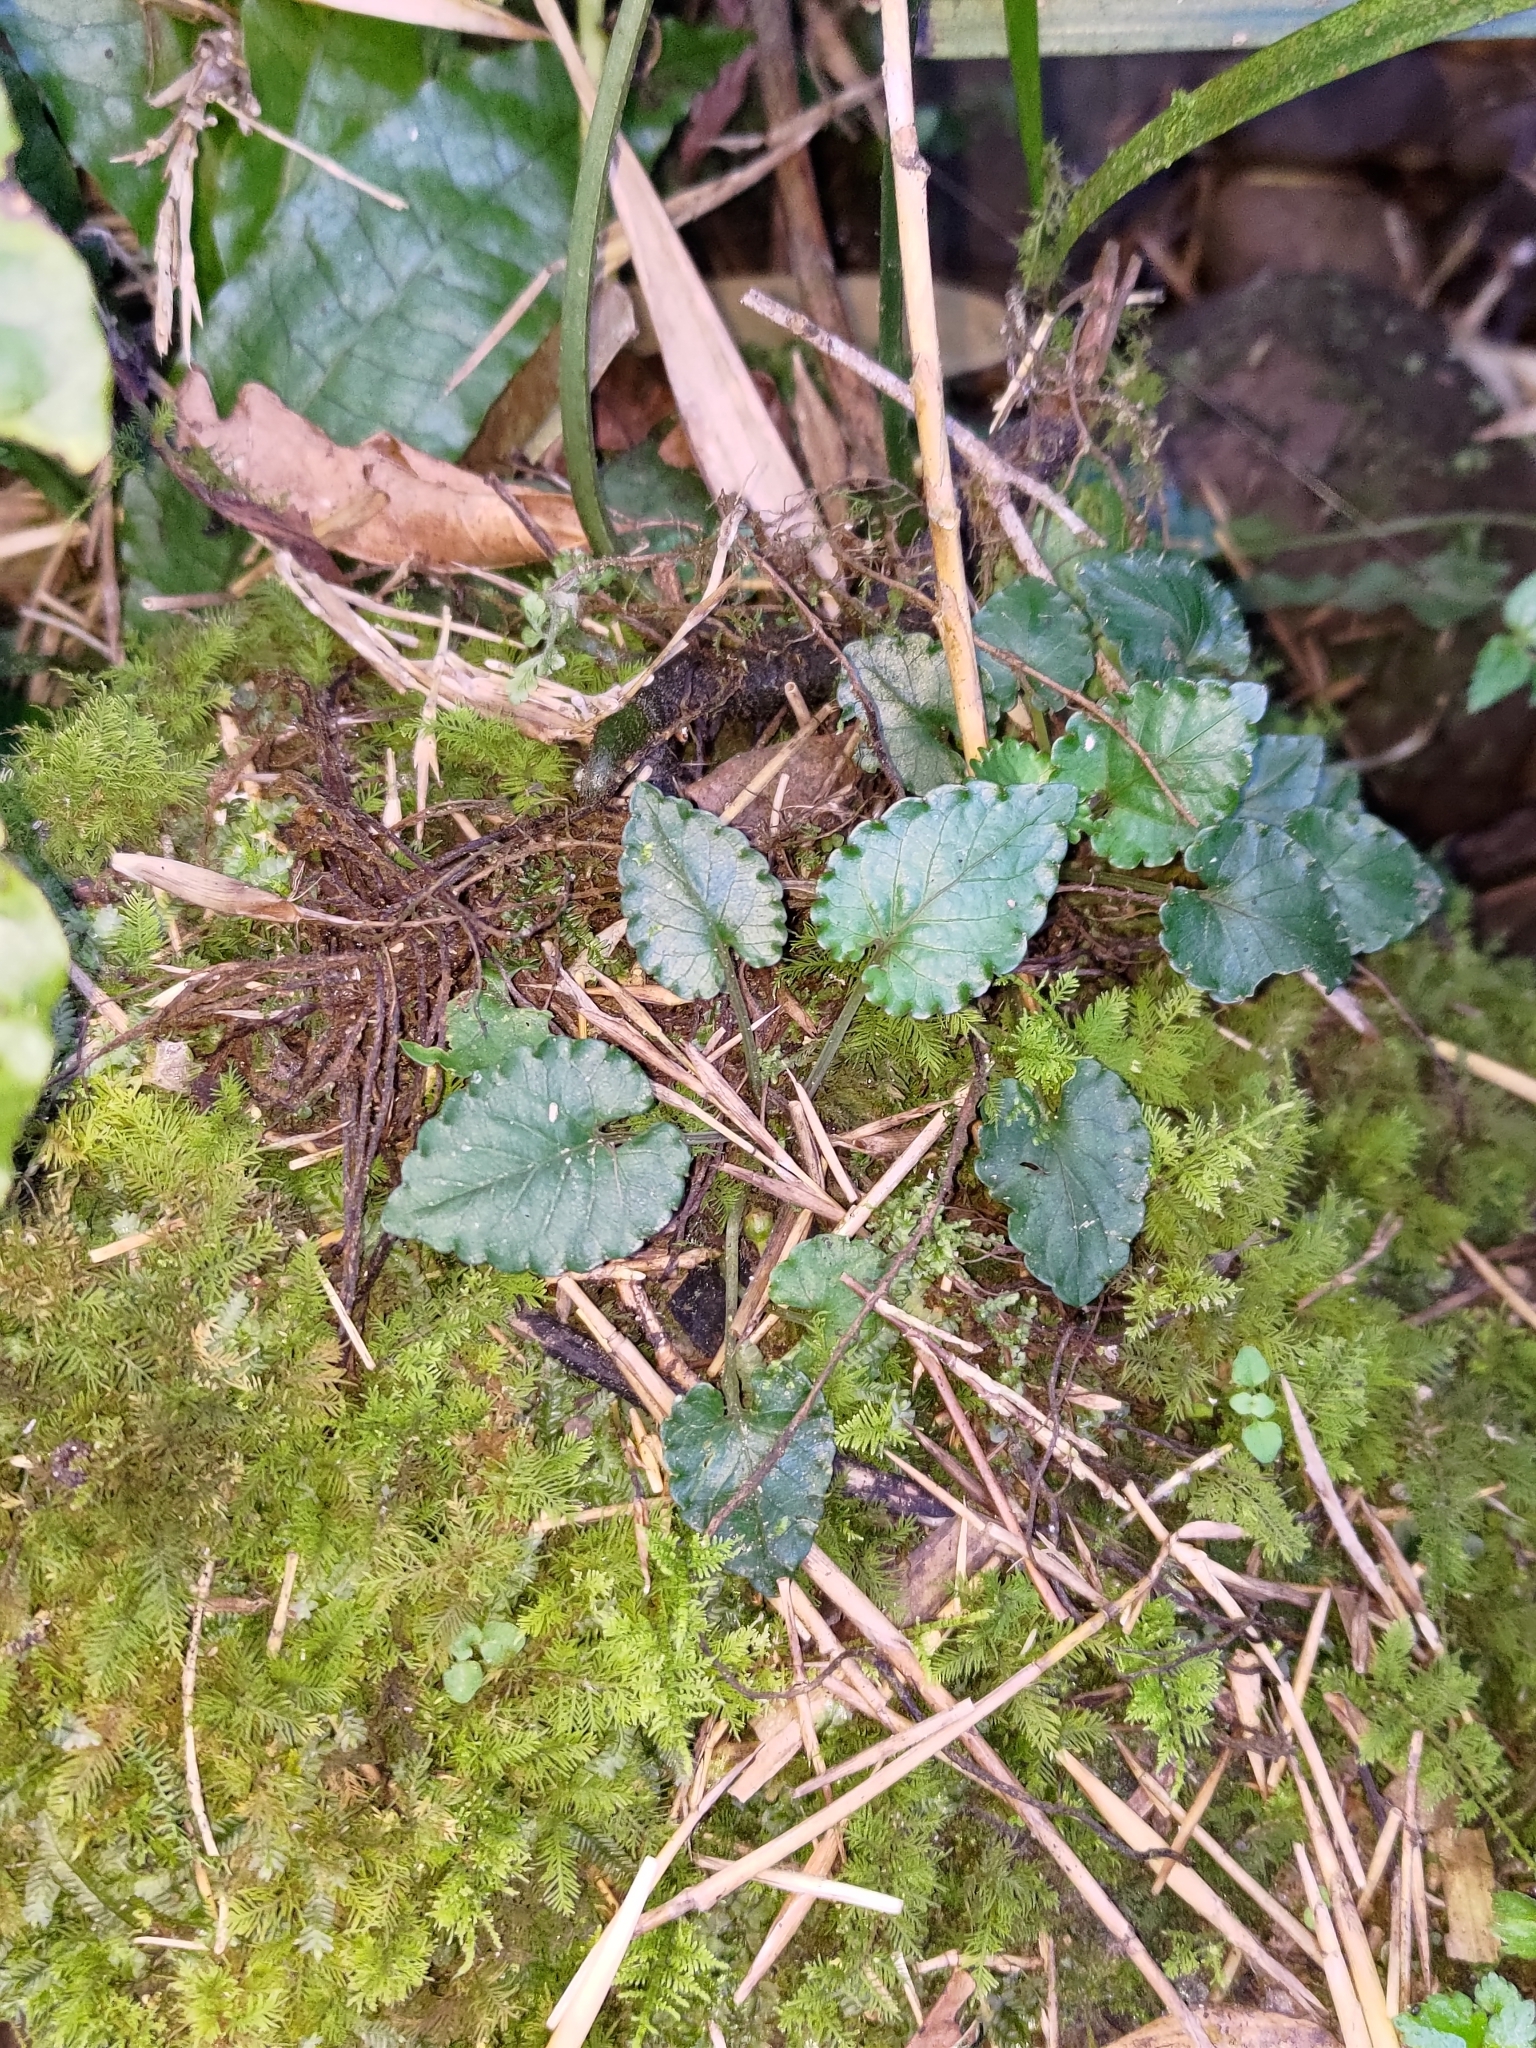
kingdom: Plantae
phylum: Tracheophyta
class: Magnoliopsida
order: Malpighiales
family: Violaceae
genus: Viola
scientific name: Viola mucronulifera
